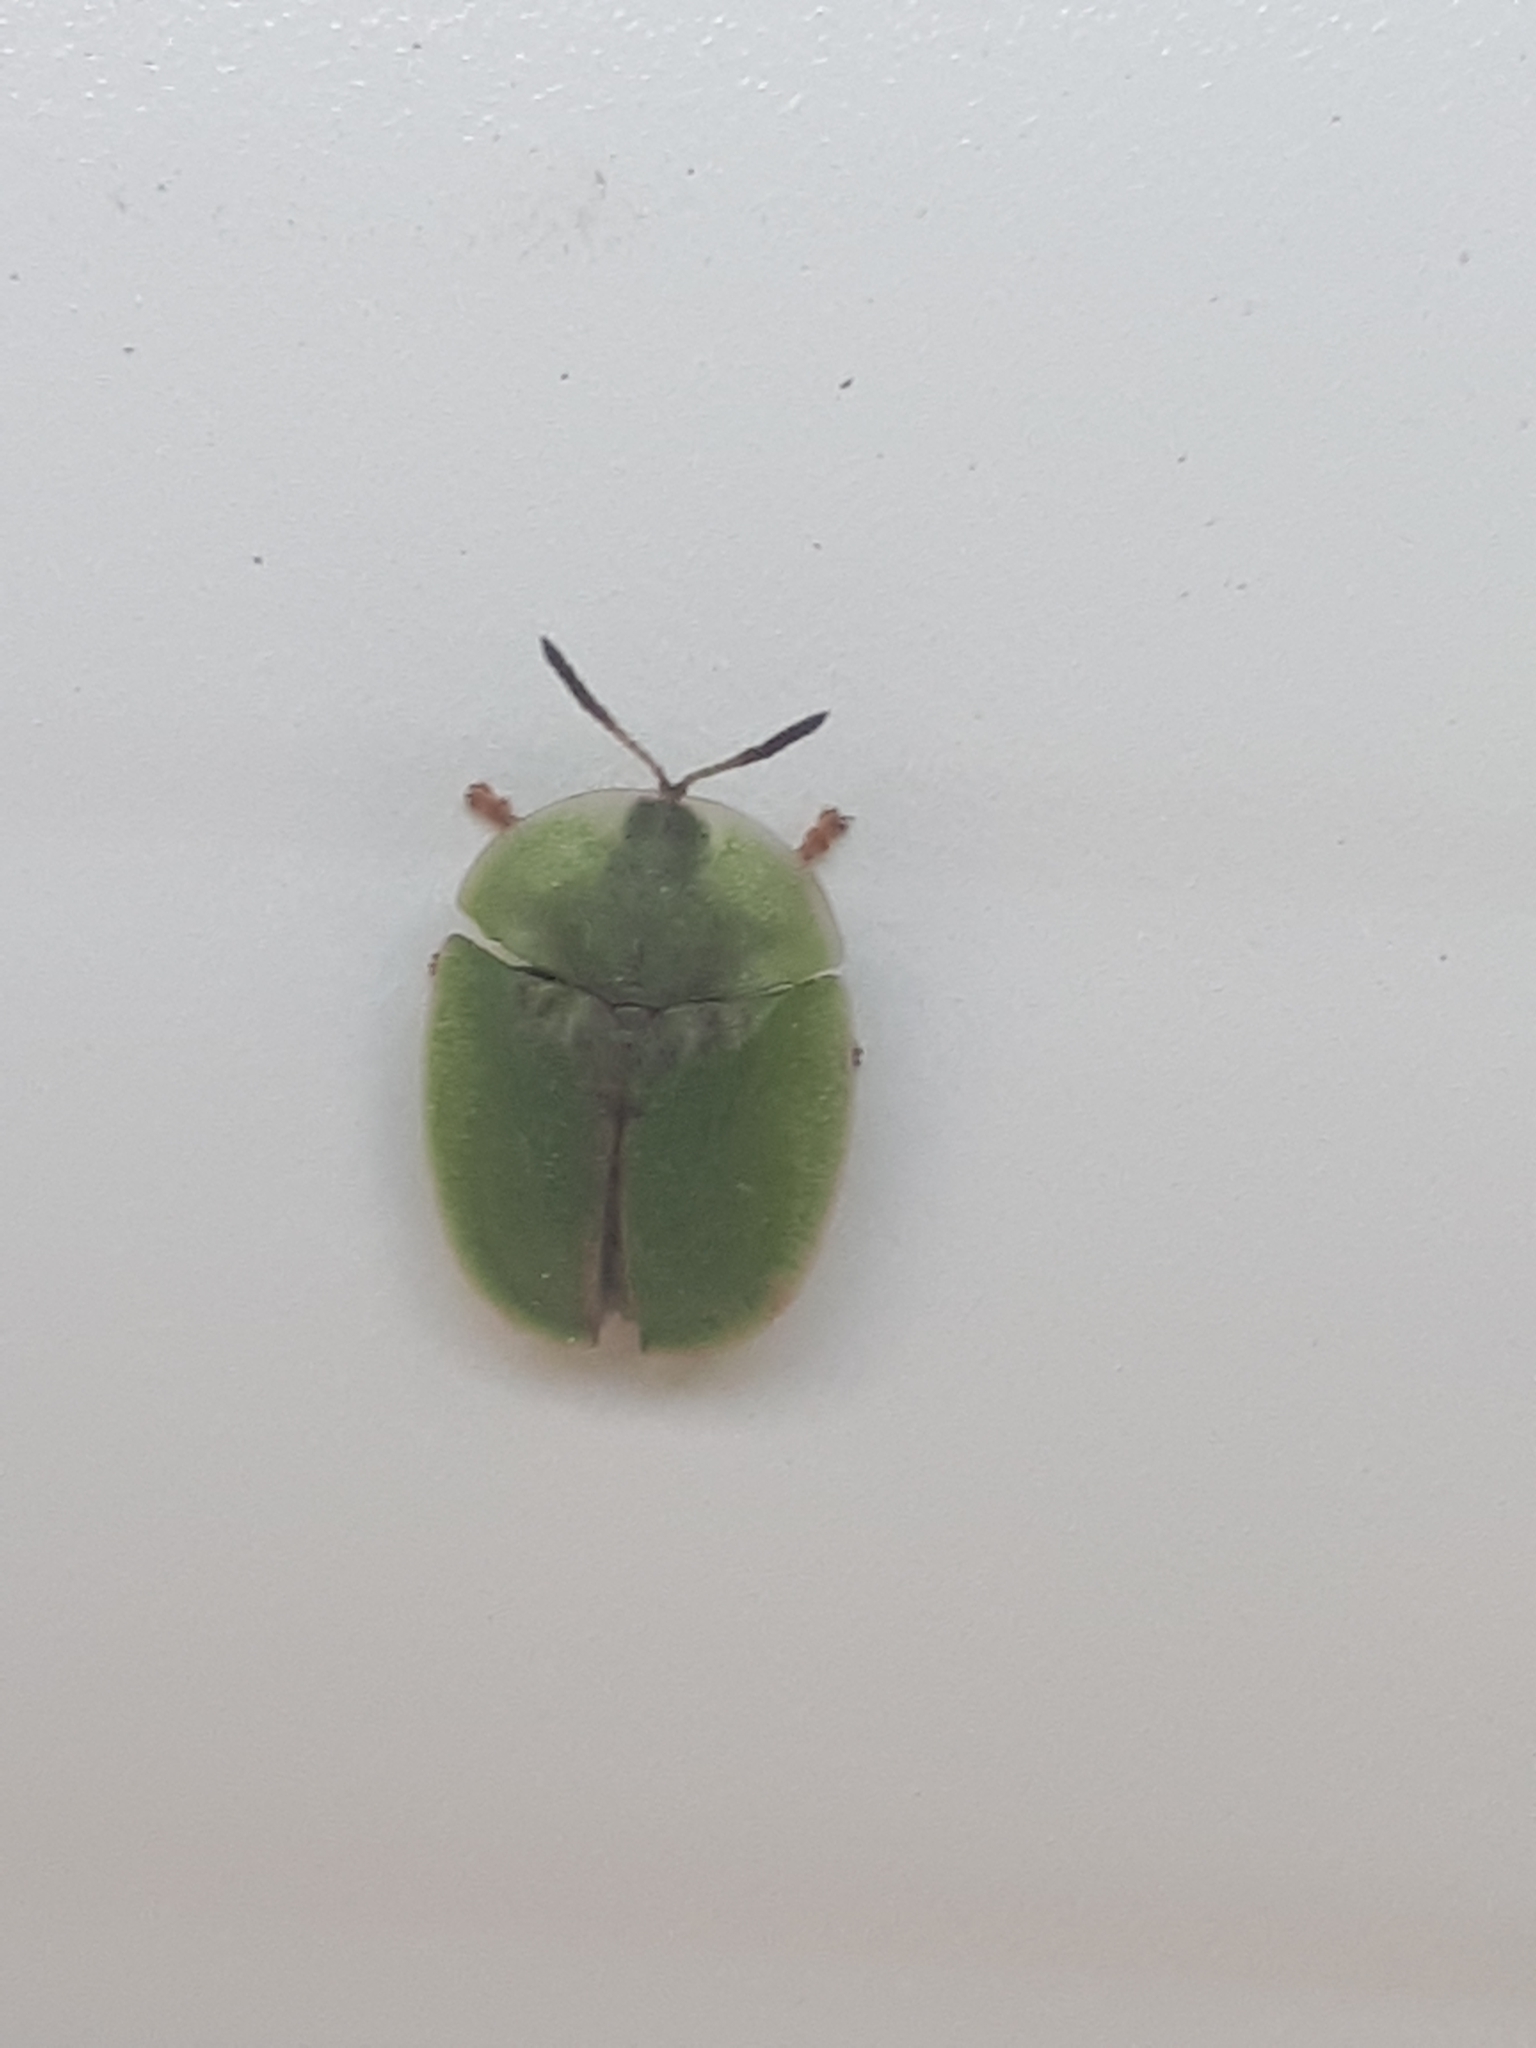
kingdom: Animalia
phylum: Arthropoda
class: Insecta
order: Coleoptera
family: Chrysomelidae
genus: Cassida
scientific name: Cassida rubiginosa
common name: Thistle tortoise beetle
